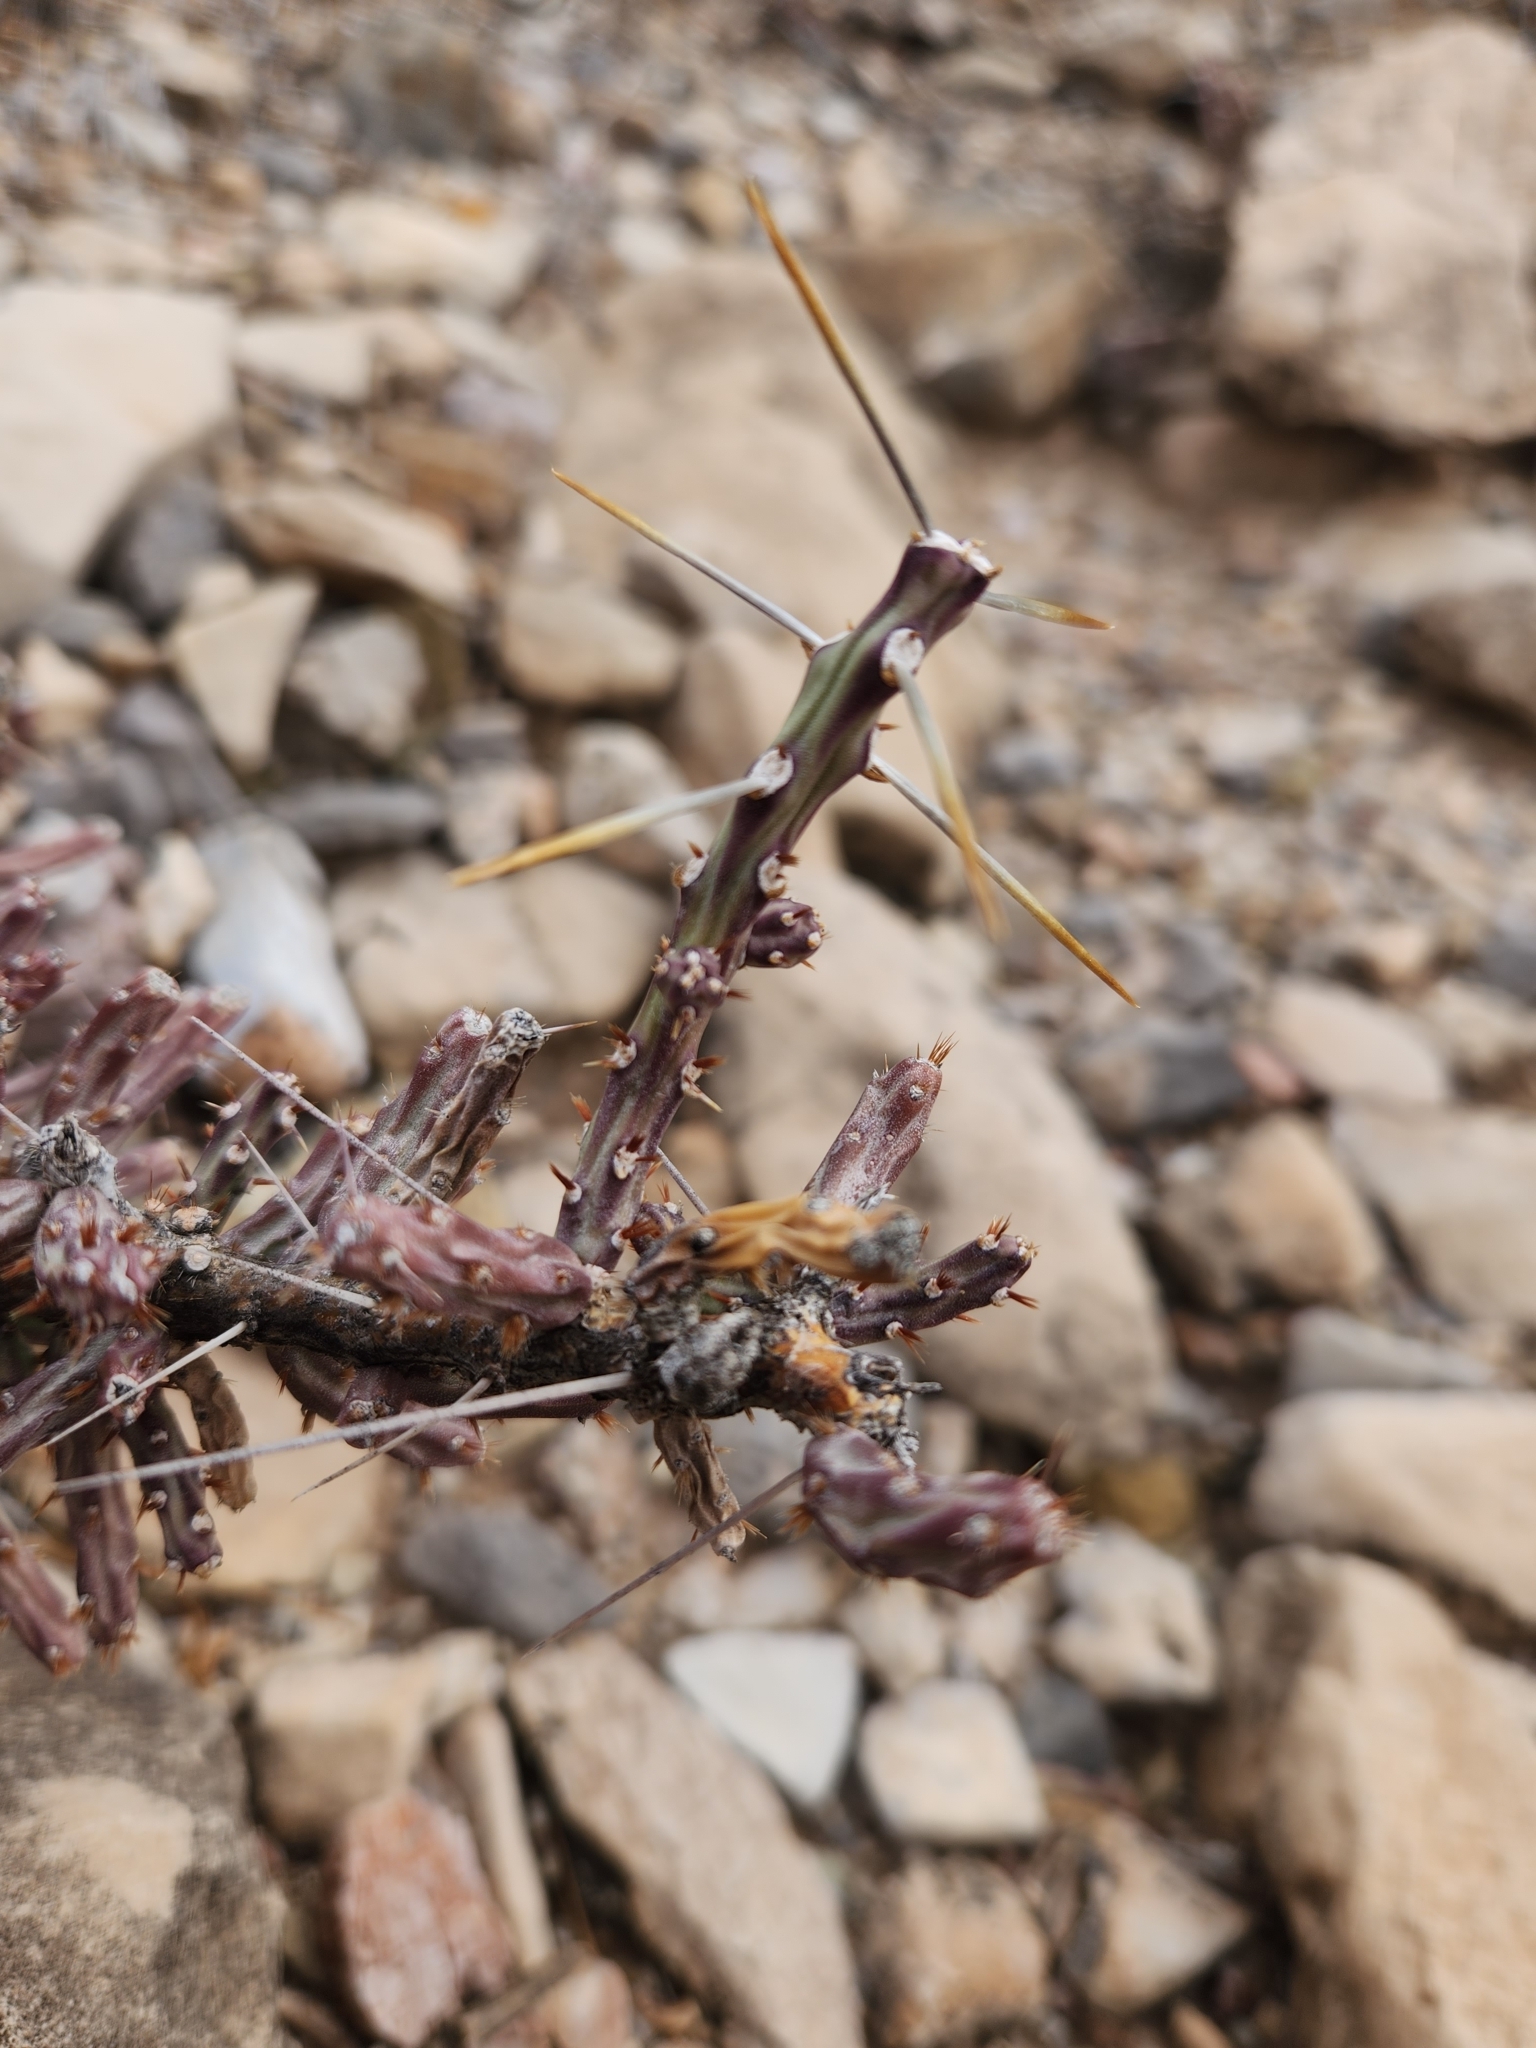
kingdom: Plantae
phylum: Tracheophyta
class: Magnoliopsida
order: Caryophyllales
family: Cactaceae
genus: Cylindropuntia
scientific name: Cylindropuntia leptocaulis
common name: Christmas cactus
